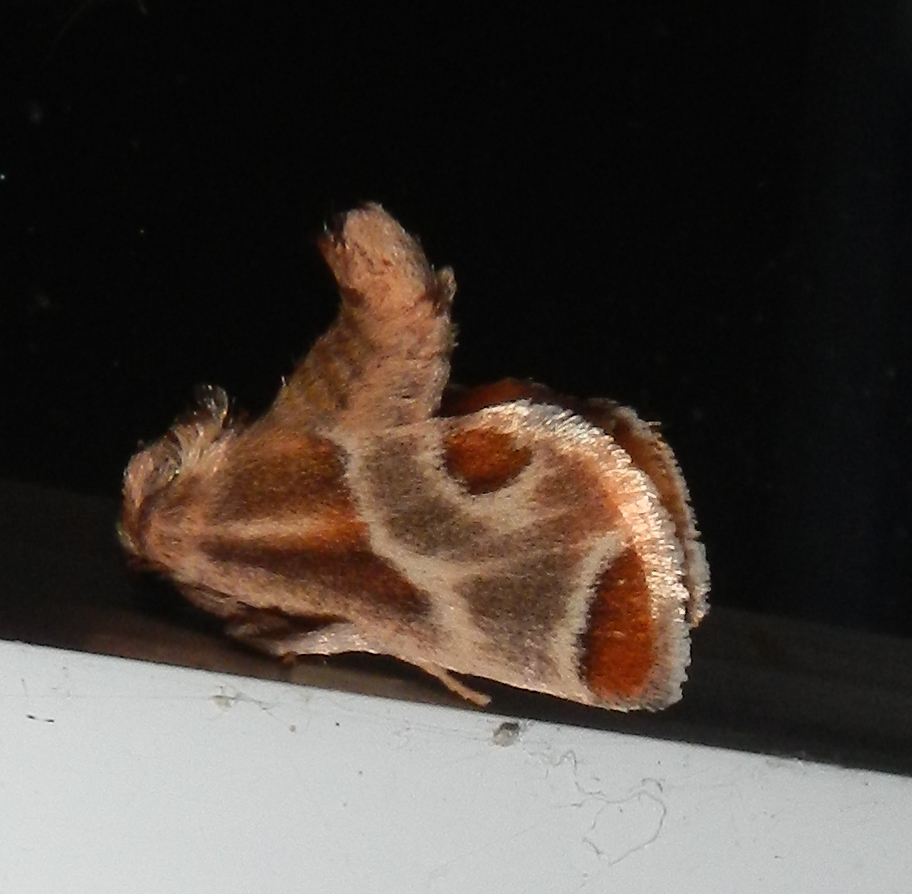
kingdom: Animalia
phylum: Arthropoda
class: Insecta
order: Lepidoptera
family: Limacodidae
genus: Apoda
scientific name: Apoda biguttata
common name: Shagreened slug moth
